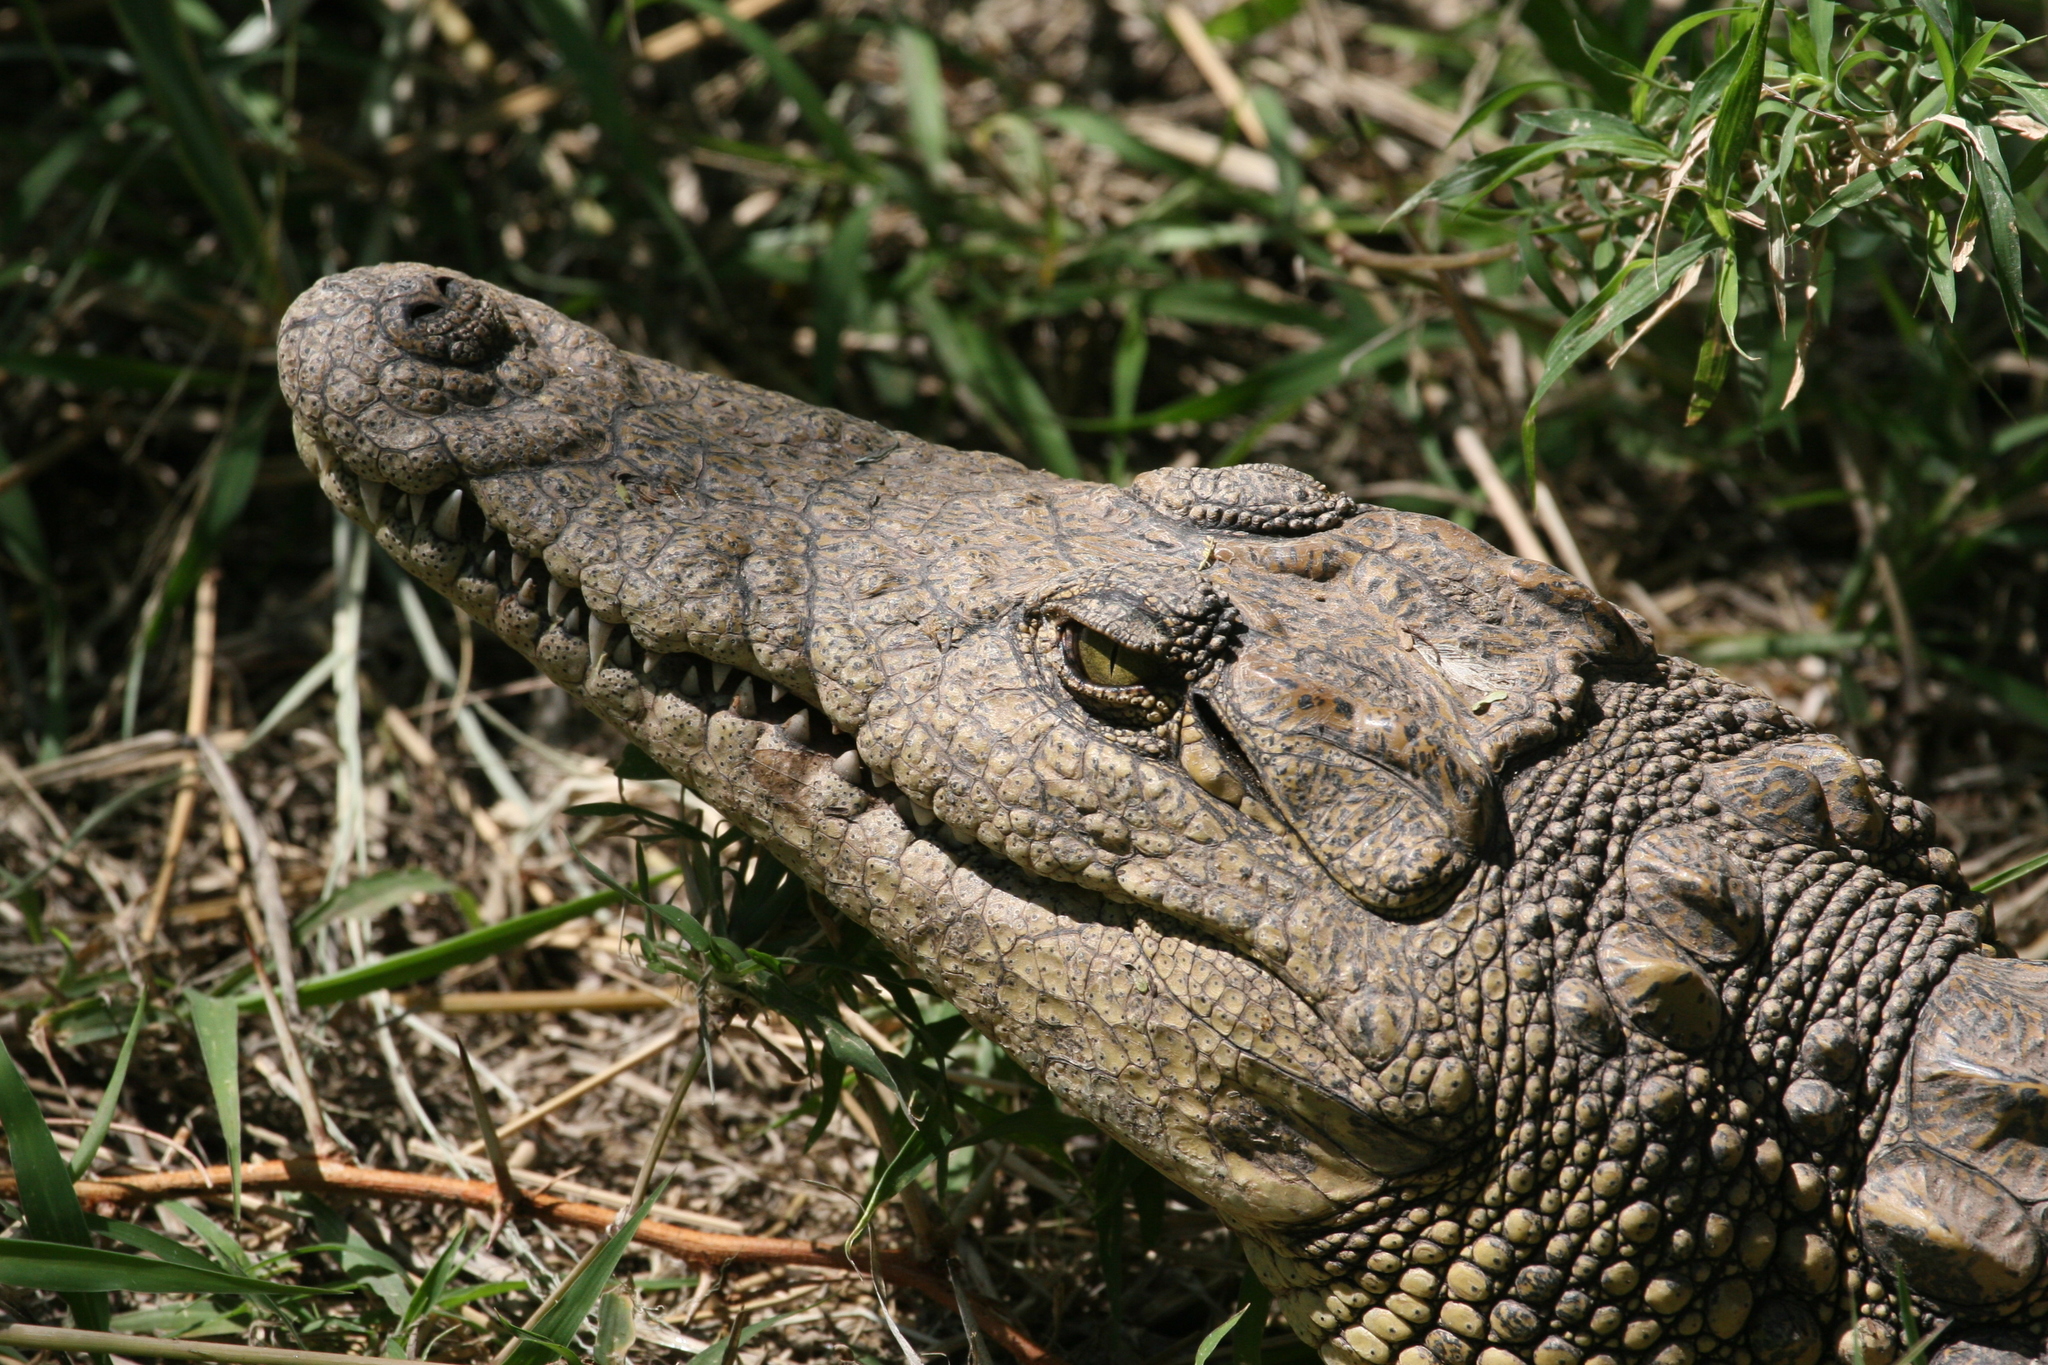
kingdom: Animalia
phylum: Chordata
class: Crocodylia
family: Crocodylidae
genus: Crocodylus
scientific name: Crocodylus niloticus
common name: Nile crocodile
